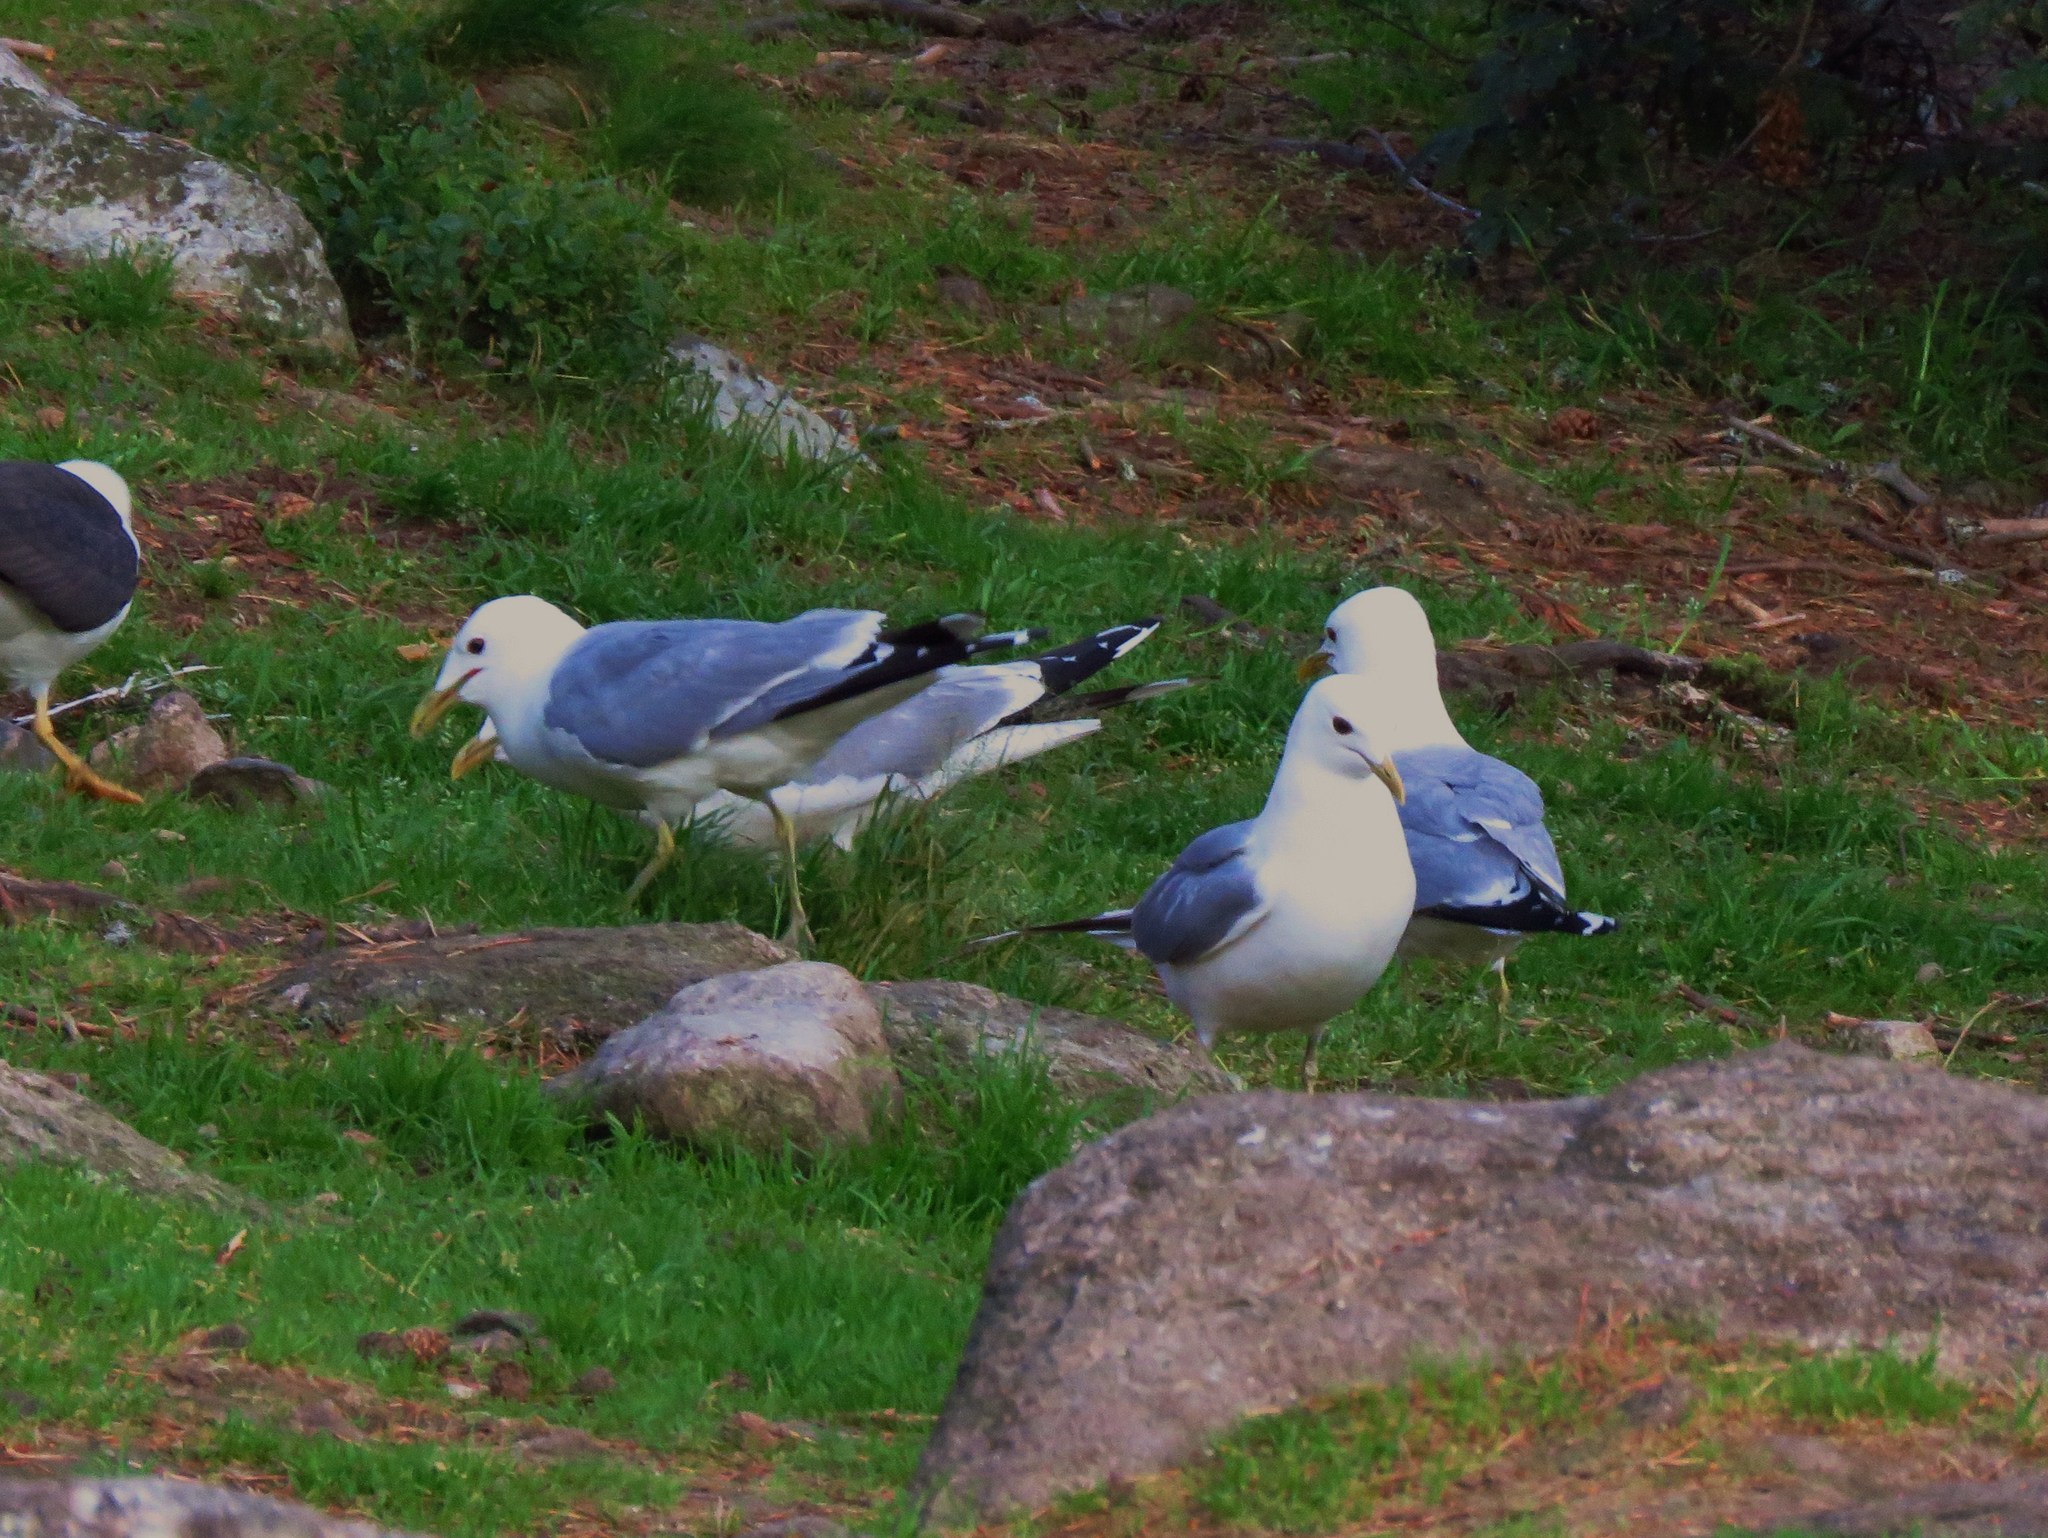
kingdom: Animalia
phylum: Chordata
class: Aves
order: Charadriiformes
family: Laridae
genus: Larus
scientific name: Larus canus
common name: Mew gull
